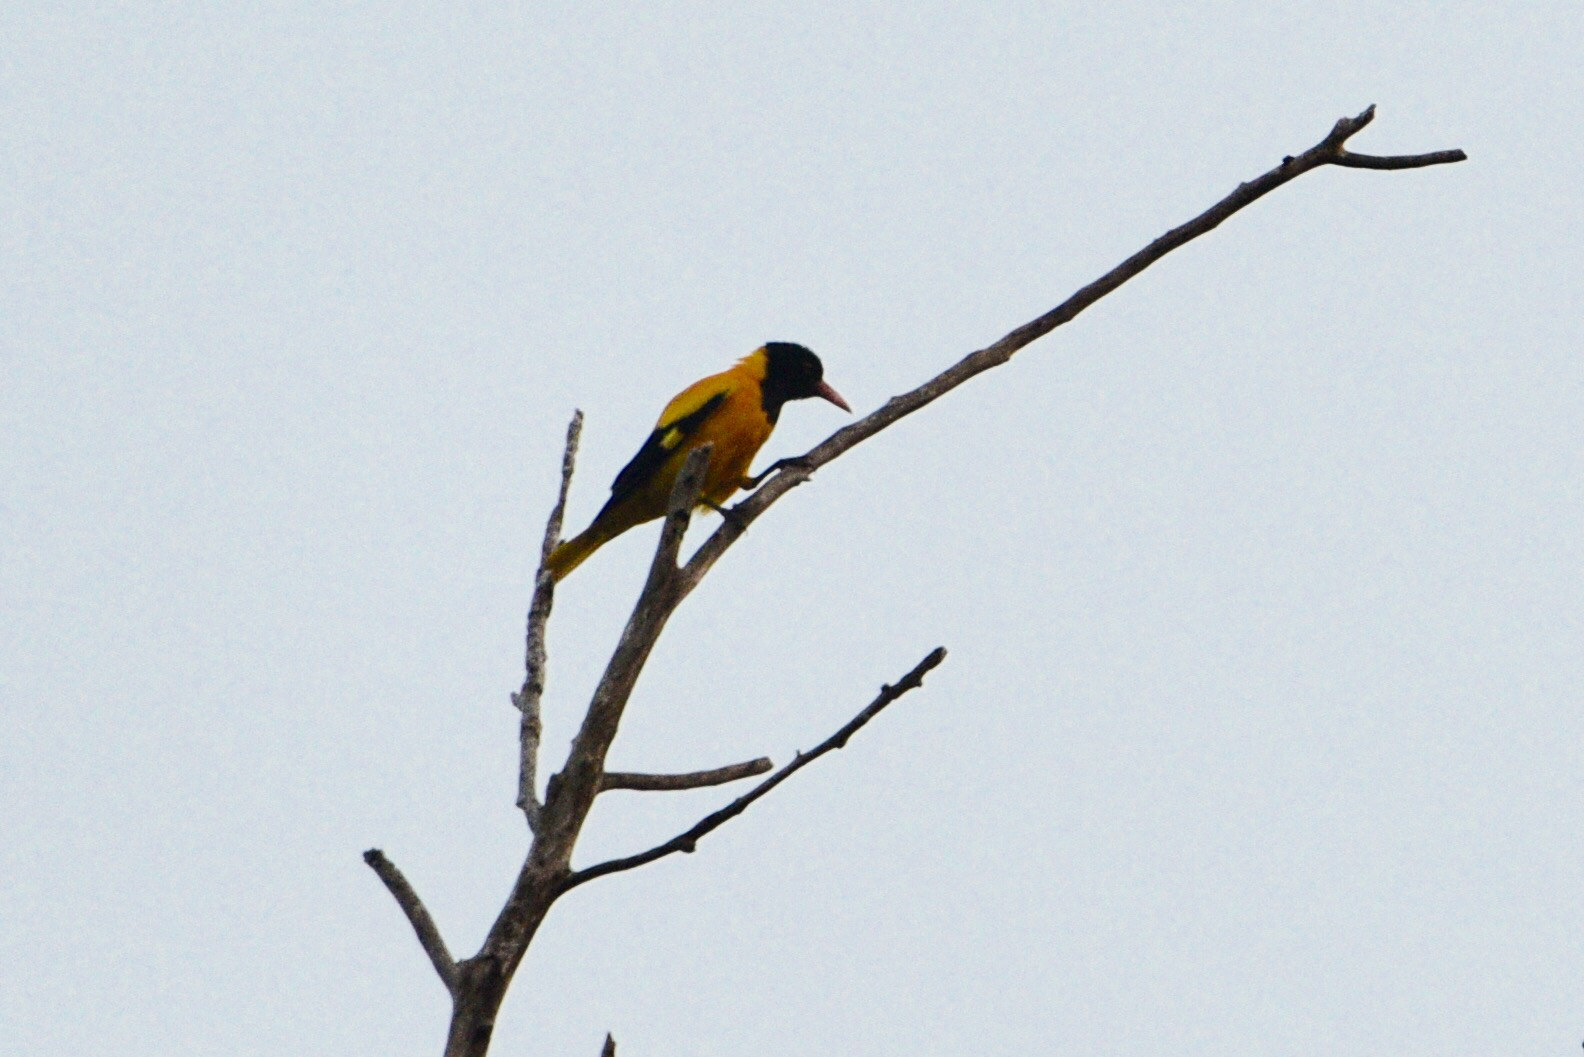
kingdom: Animalia
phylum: Chordata
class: Aves
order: Passeriformes
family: Oriolidae
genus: Oriolus
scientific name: Oriolus xanthornus
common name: Black-hooded oriole
